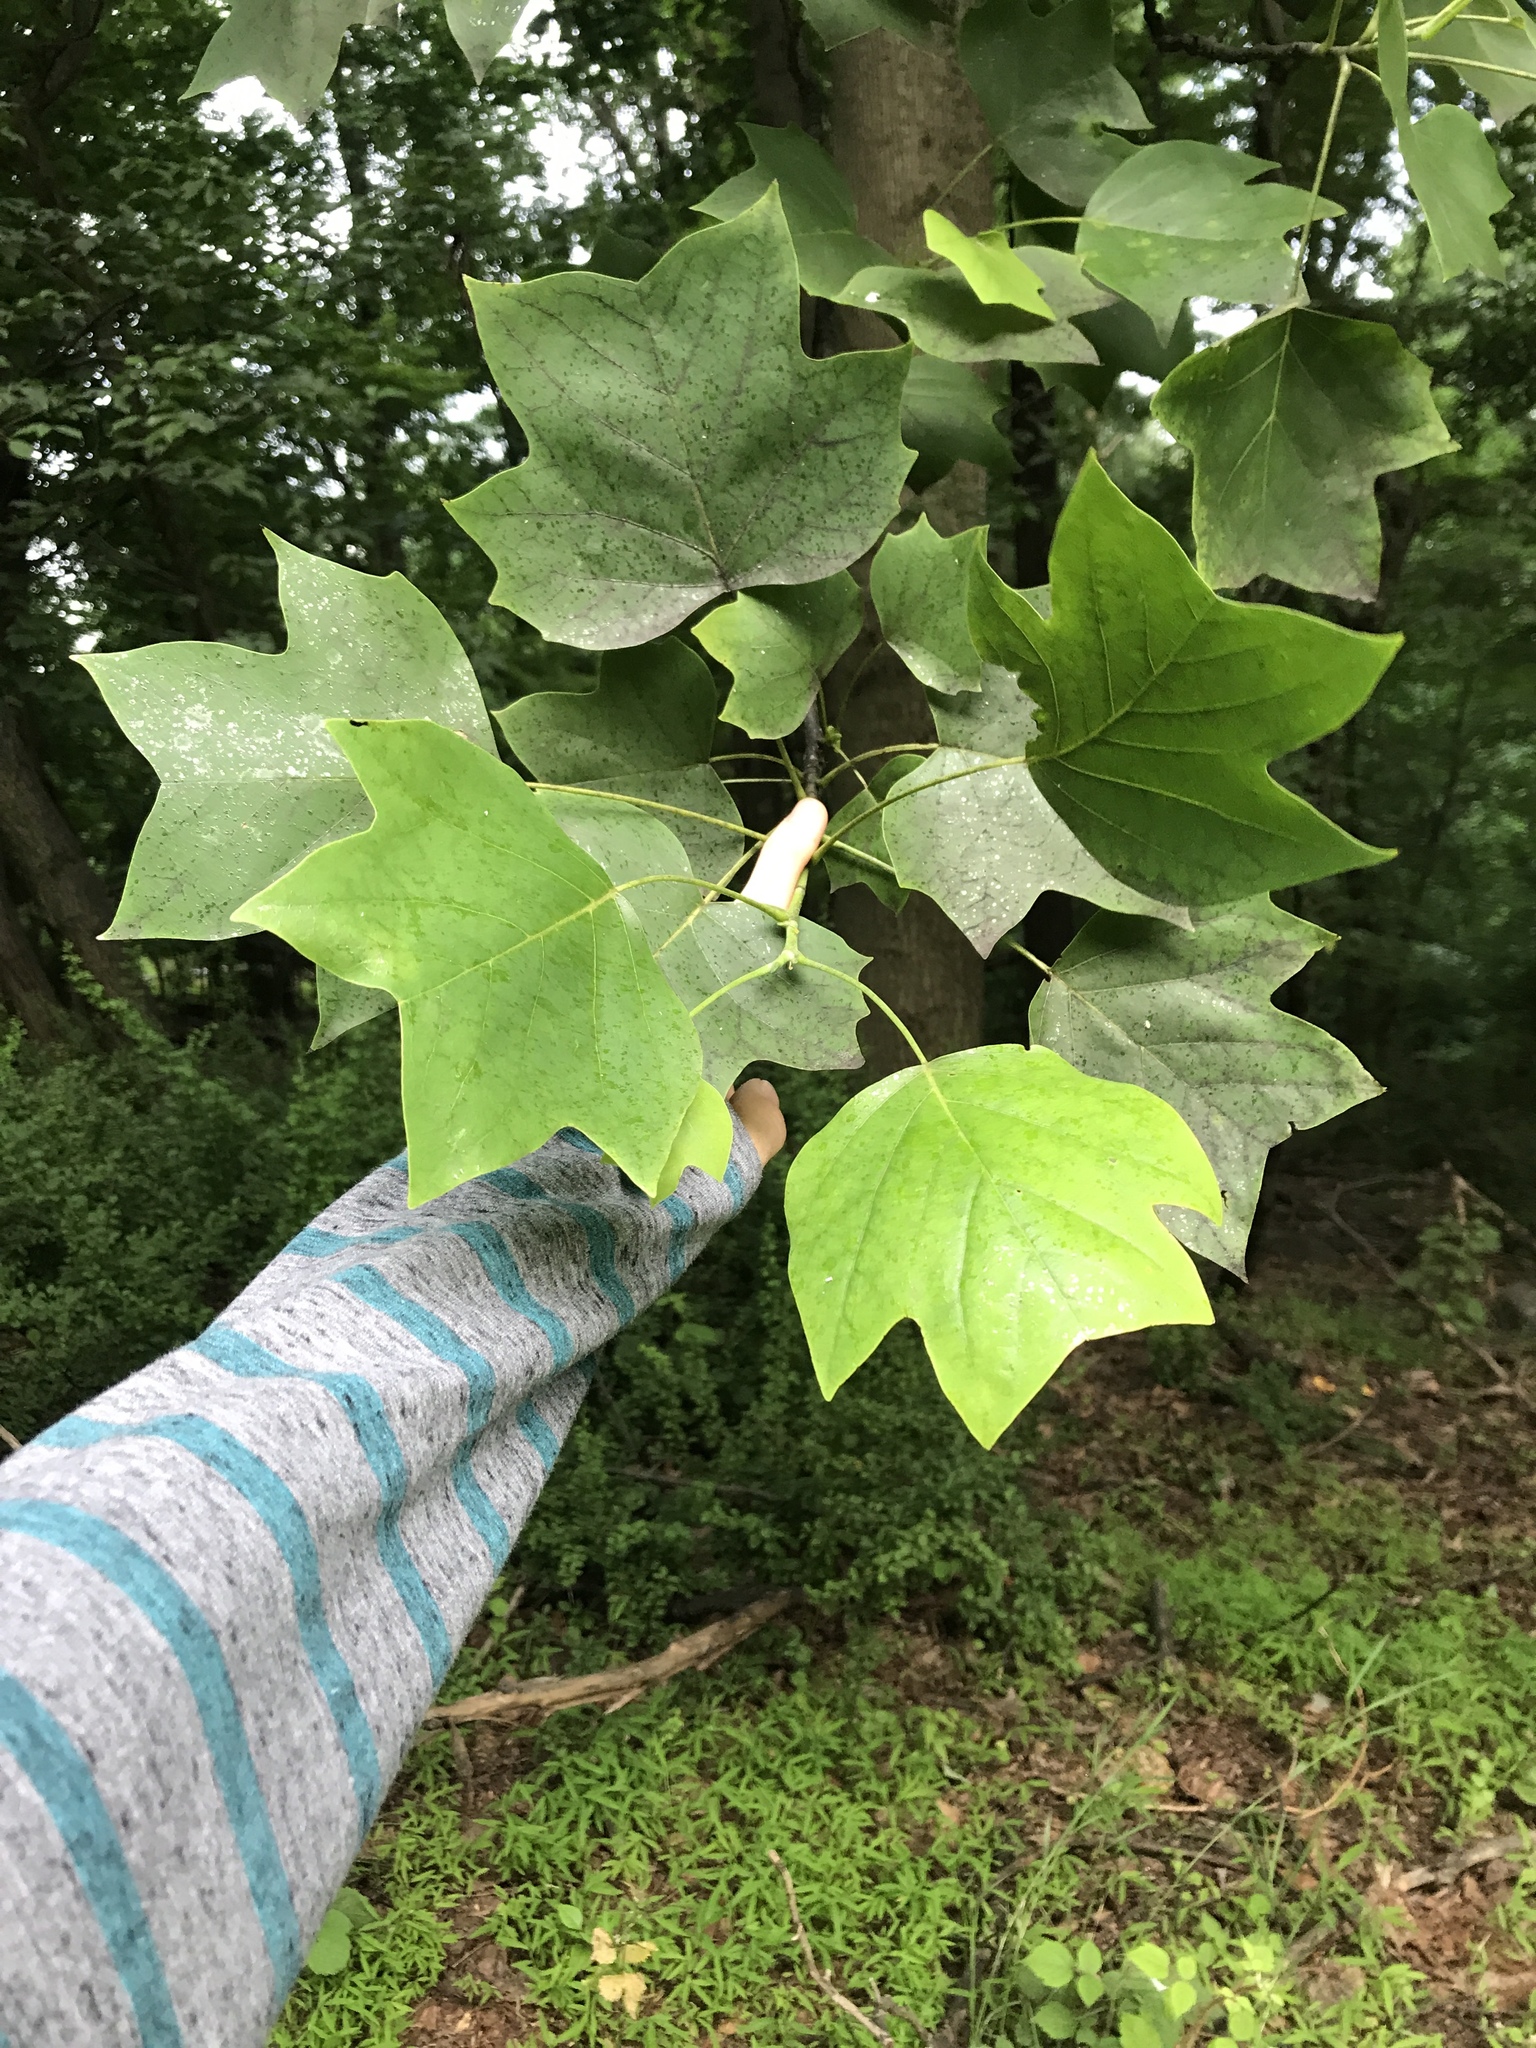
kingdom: Plantae
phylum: Tracheophyta
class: Magnoliopsida
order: Magnoliales
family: Magnoliaceae
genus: Liriodendron
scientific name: Liriodendron tulipifera
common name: Tulip tree
